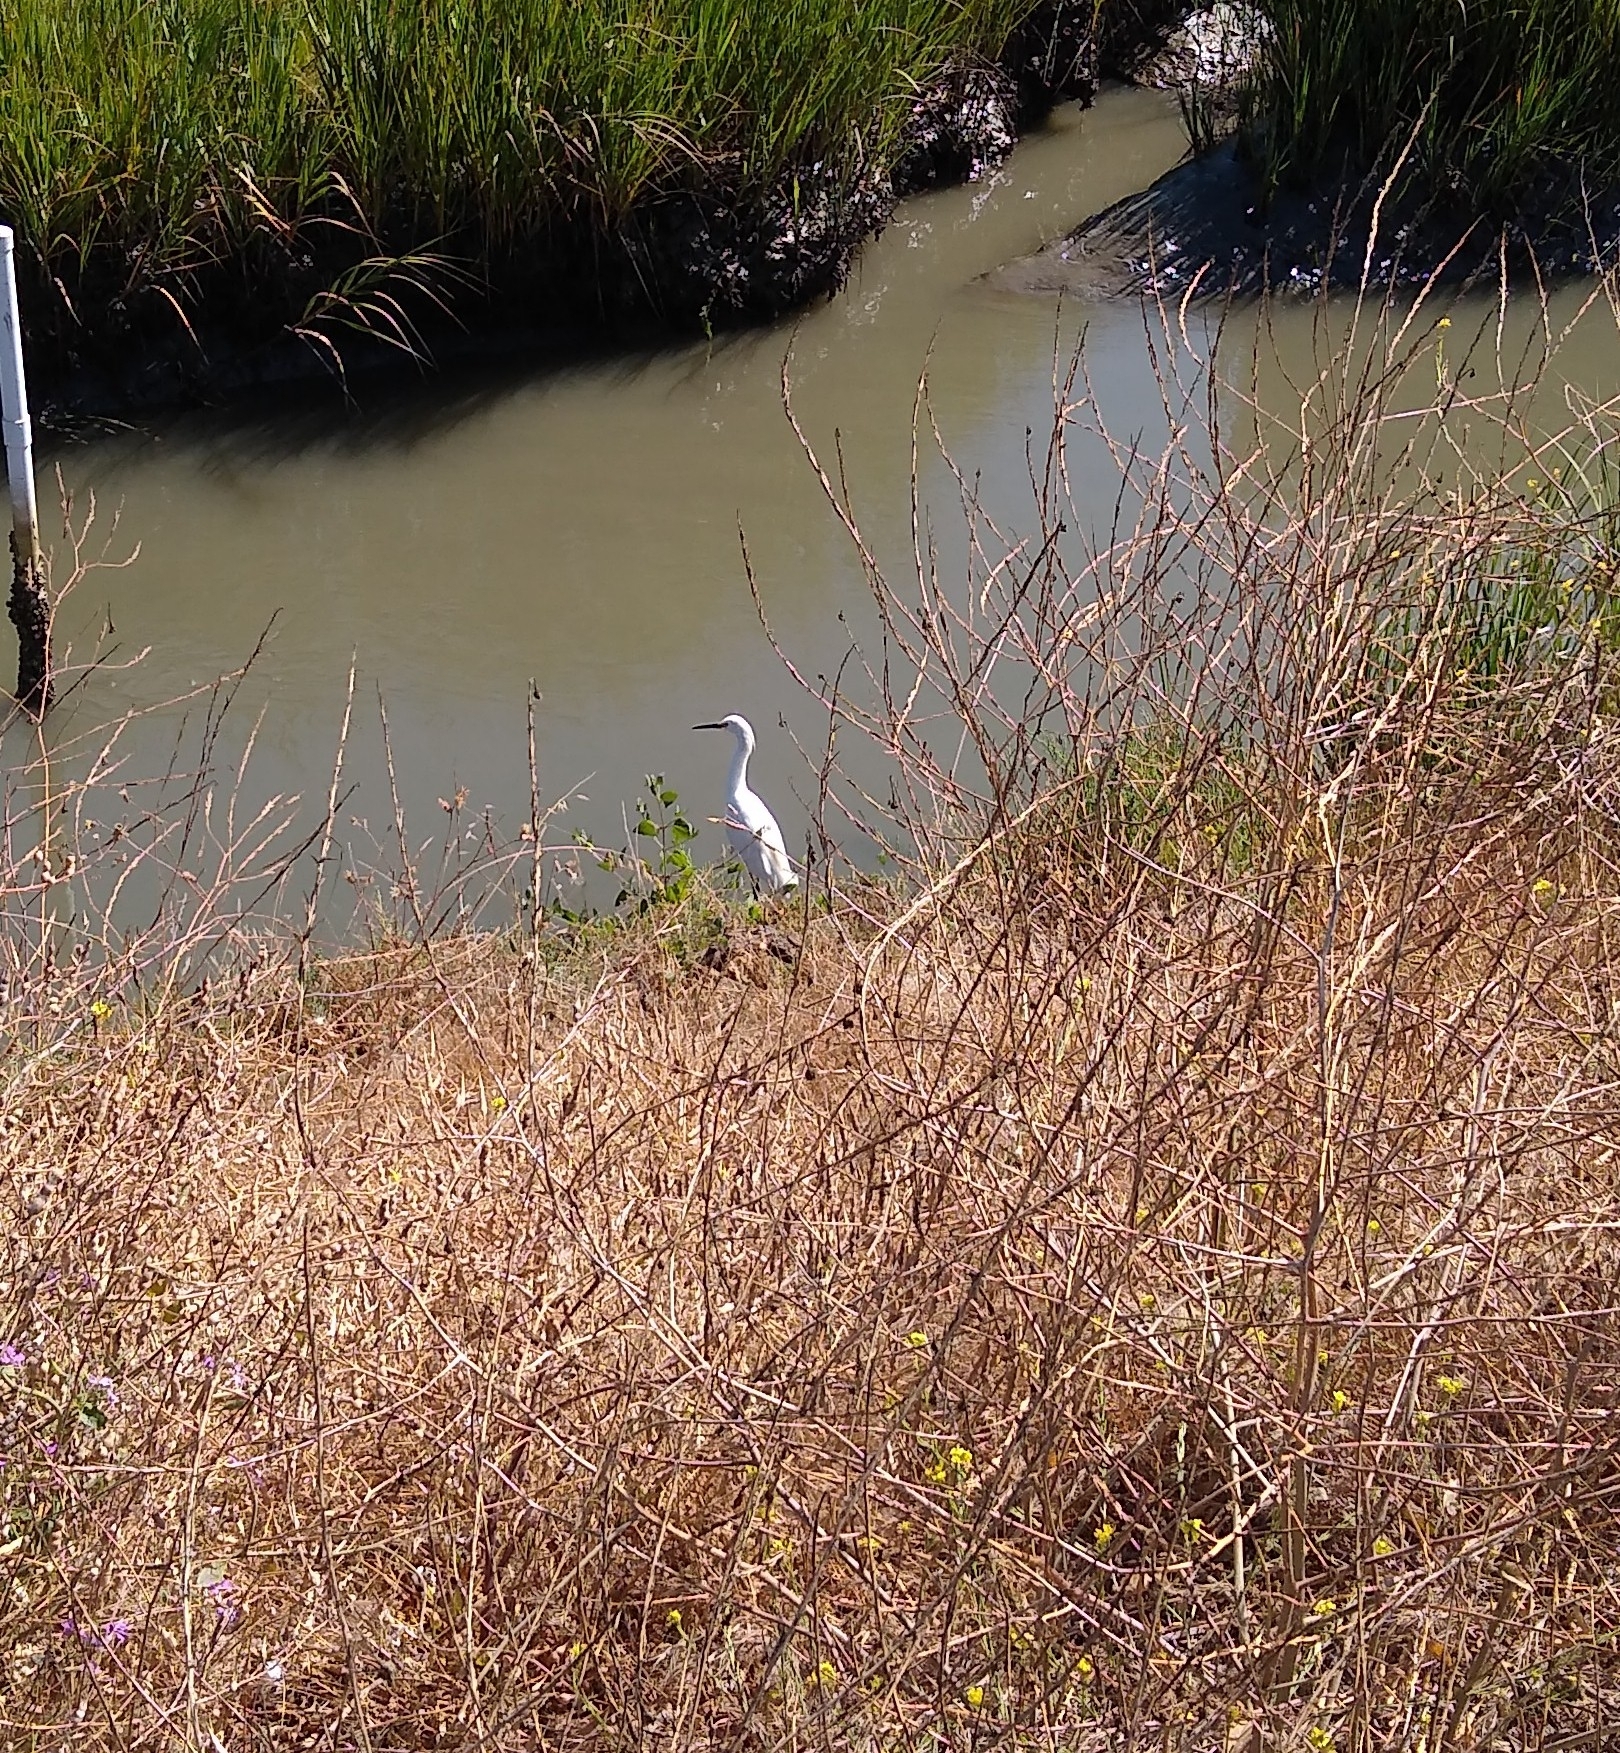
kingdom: Animalia
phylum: Chordata
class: Aves
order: Pelecaniformes
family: Ardeidae
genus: Egretta
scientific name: Egretta thula
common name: Snowy egret
